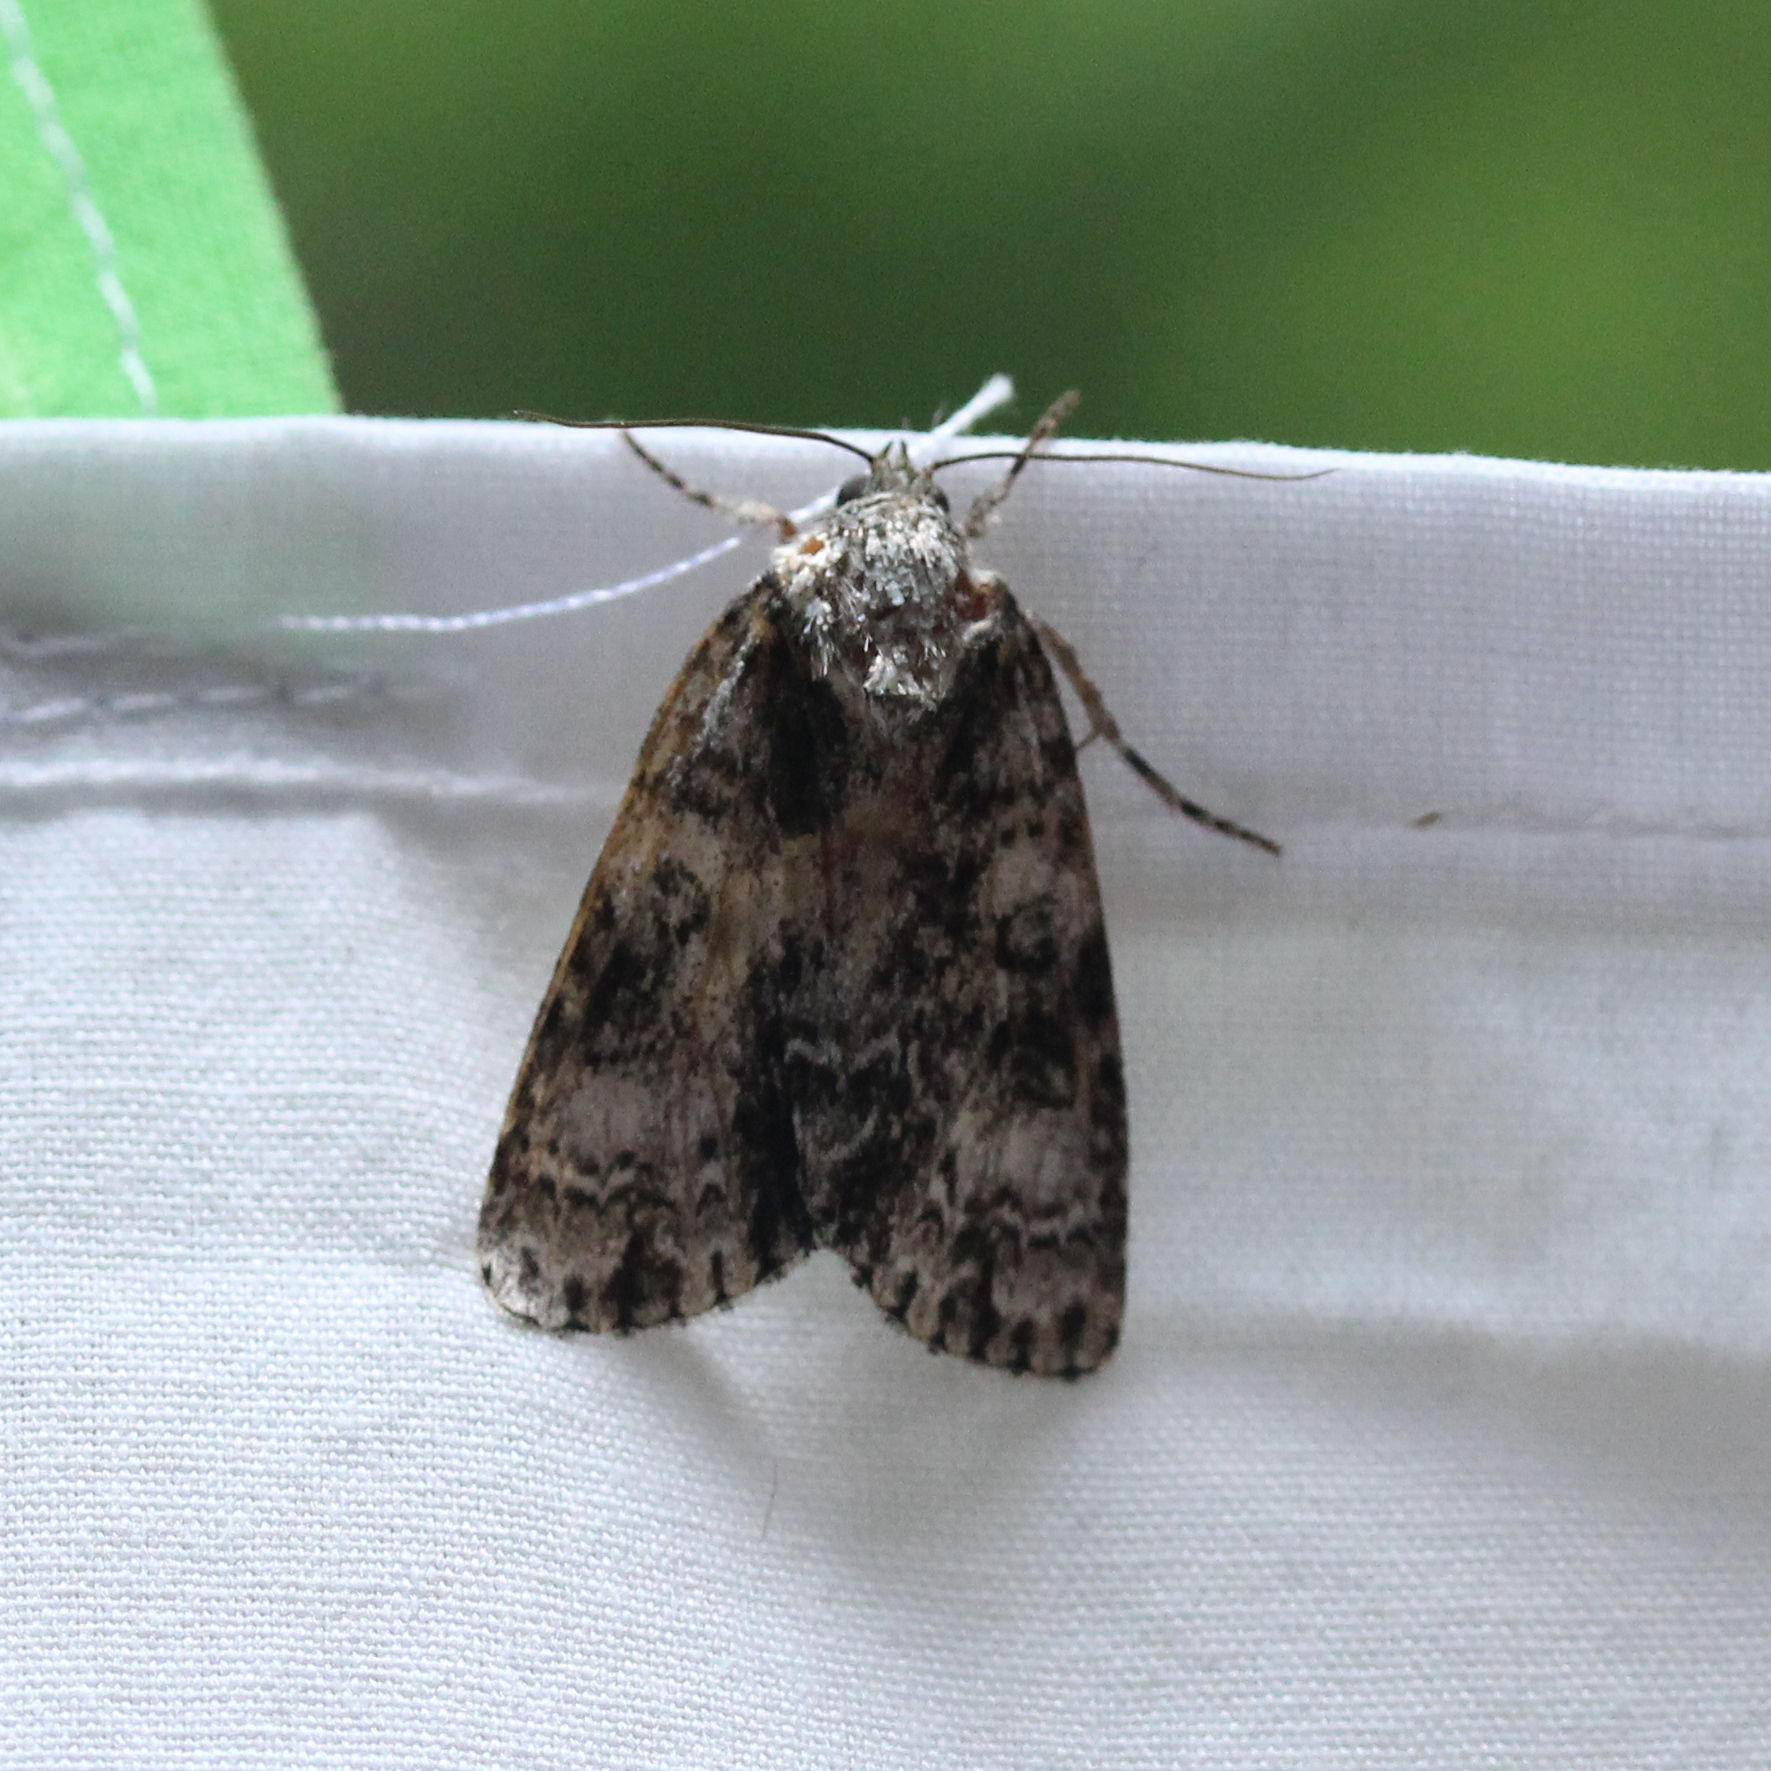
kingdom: Animalia
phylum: Arthropoda
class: Insecta
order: Lepidoptera
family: Noctuidae
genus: Acronicta
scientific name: Acronicta superans
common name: Splendid dagger
